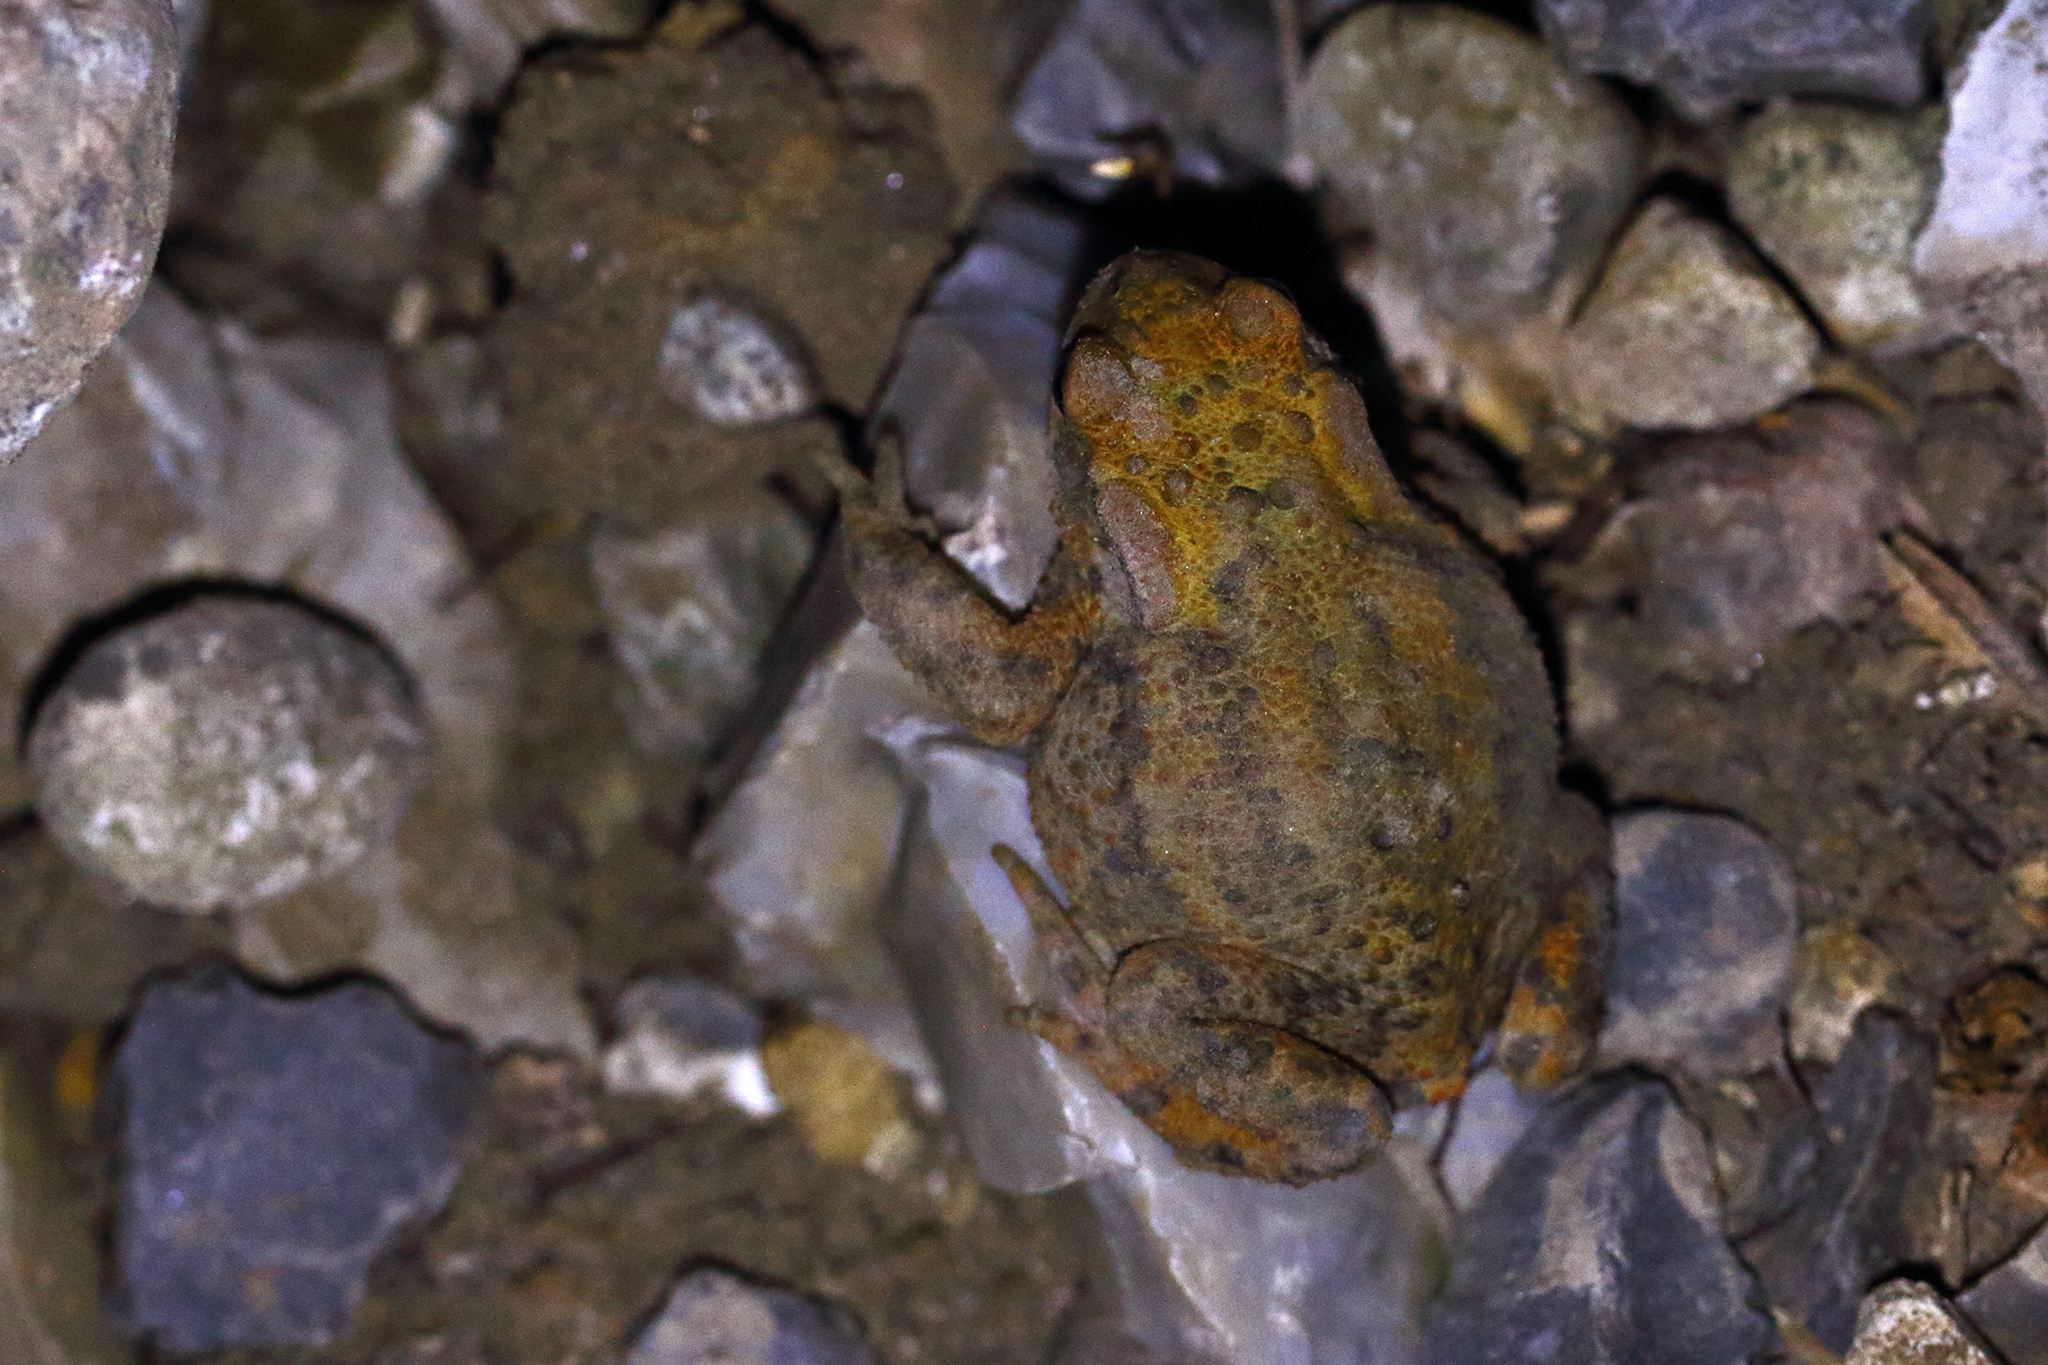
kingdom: Animalia
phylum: Chordata
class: Amphibia
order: Anura
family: Bufonidae
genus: Bufo
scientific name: Bufo bufo
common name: Common toad
